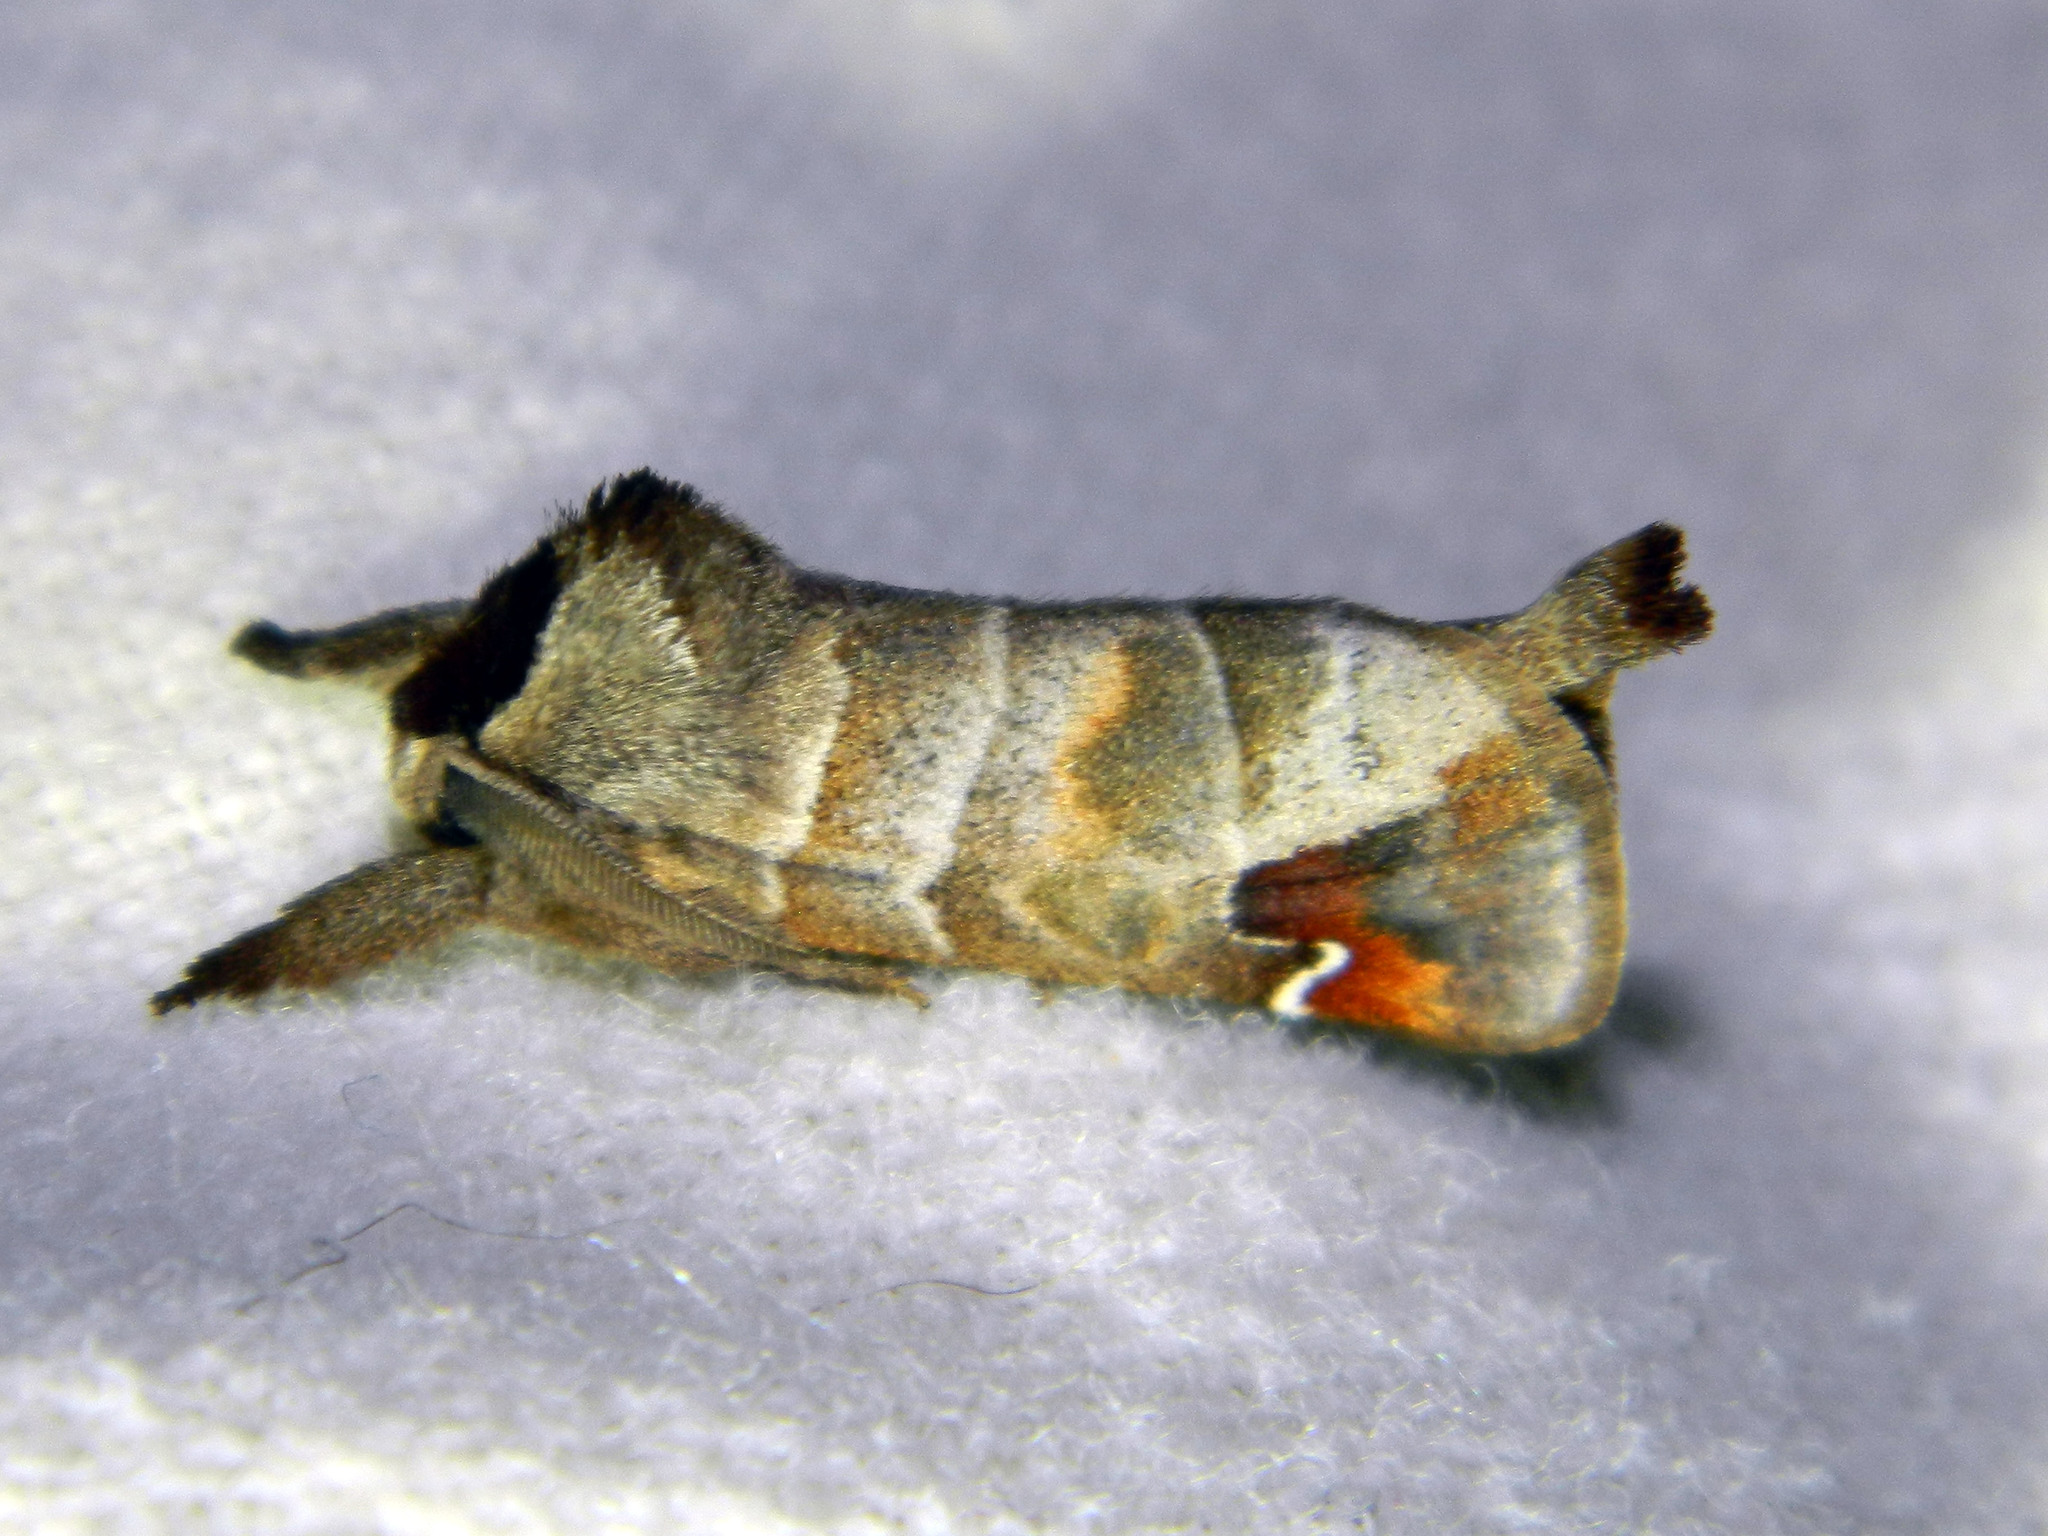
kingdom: Animalia
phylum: Arthropoda
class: Insecta
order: Lepidoptera
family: Notodontidae
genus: Clostera
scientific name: Clostera albosigma
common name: Sigmoid prominent
